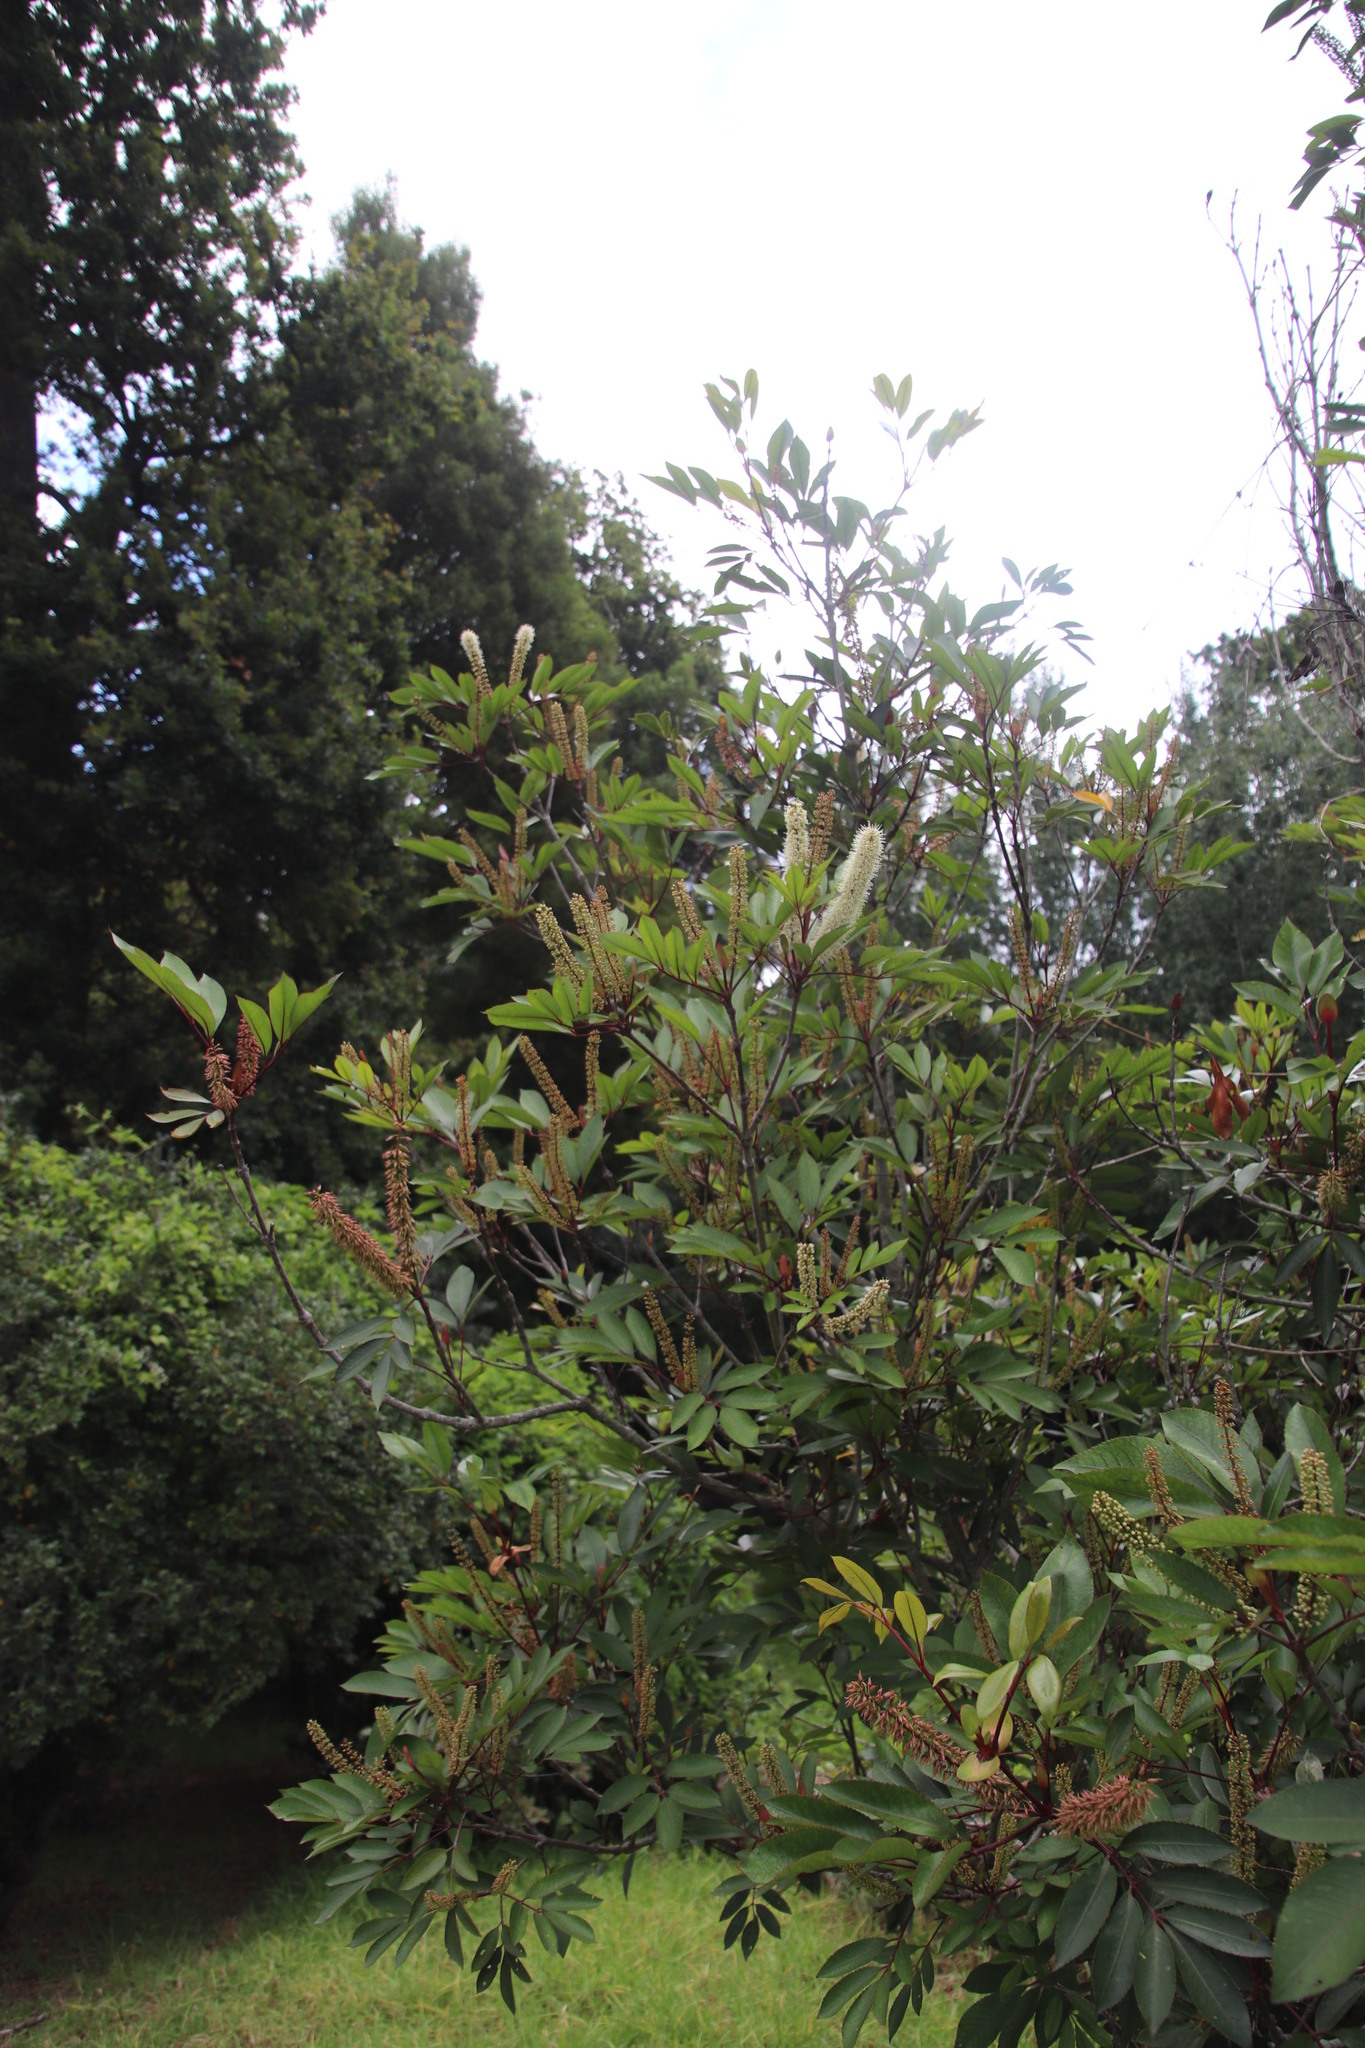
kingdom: Plantae
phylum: Tracheophyta
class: Magnoliopsida
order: Oxalidales
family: Cunoniaceae
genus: Cunonia
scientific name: Cunonia capensis
